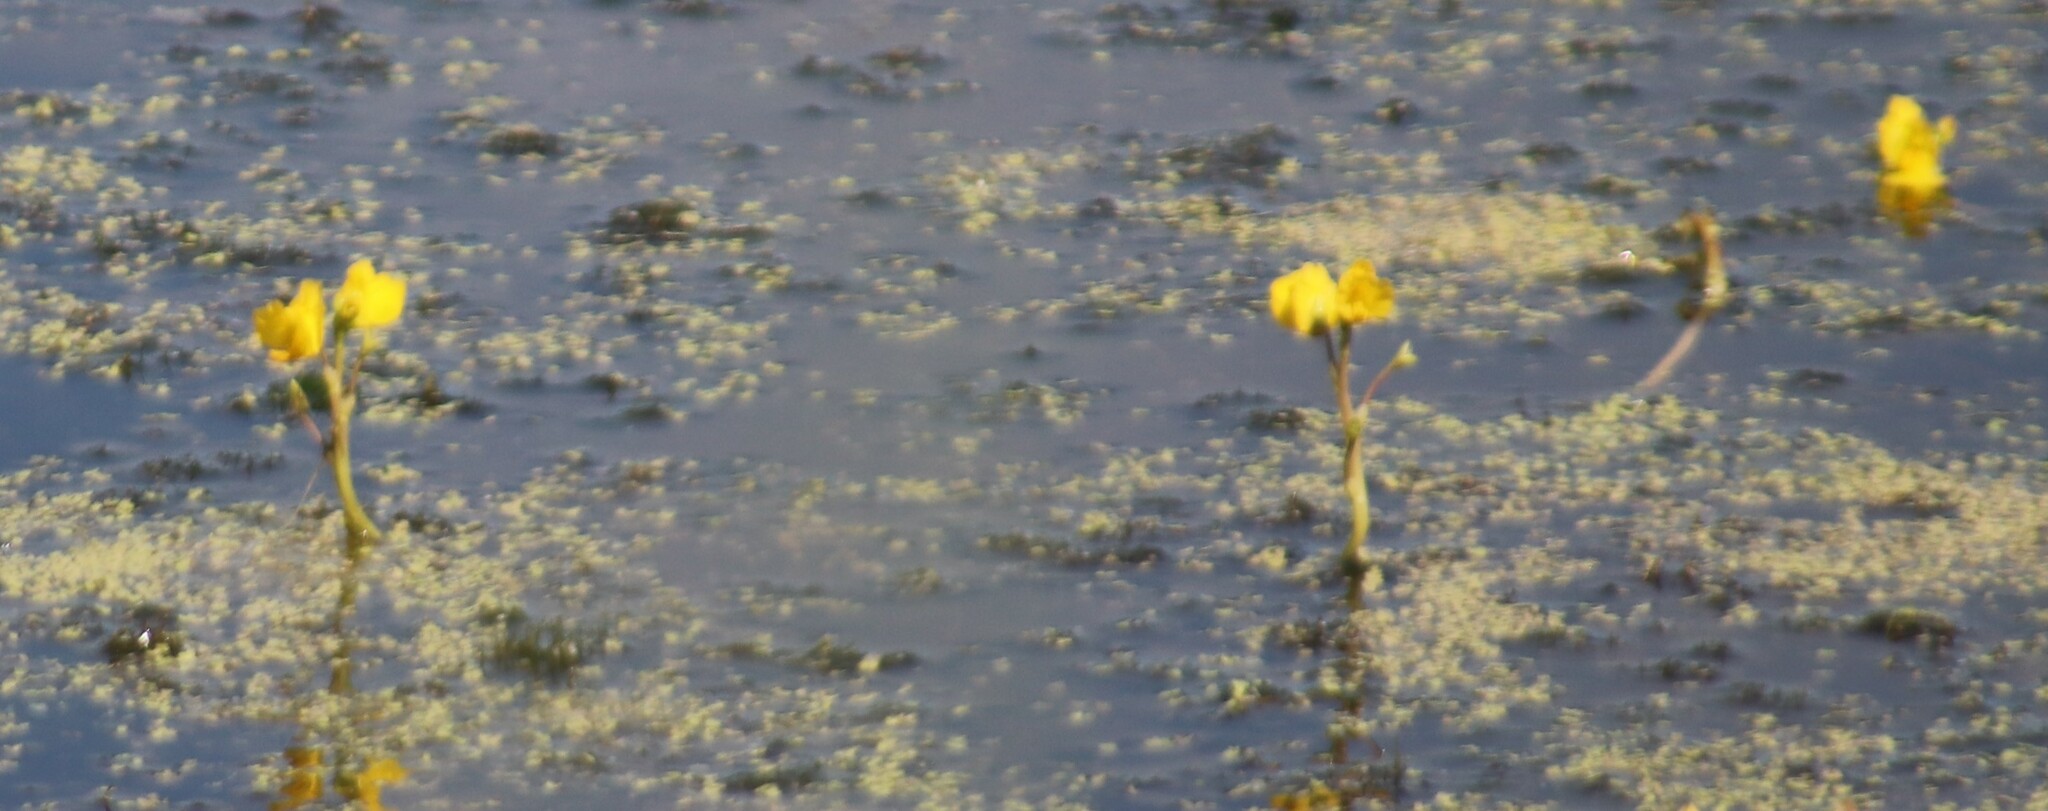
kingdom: Plantae
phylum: Tracheophyta
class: Magnoliopsida
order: Lamiales
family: Lentibulariaceae
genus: Utricularia
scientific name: Utricularia macrorhiza
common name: Common bladderwort
